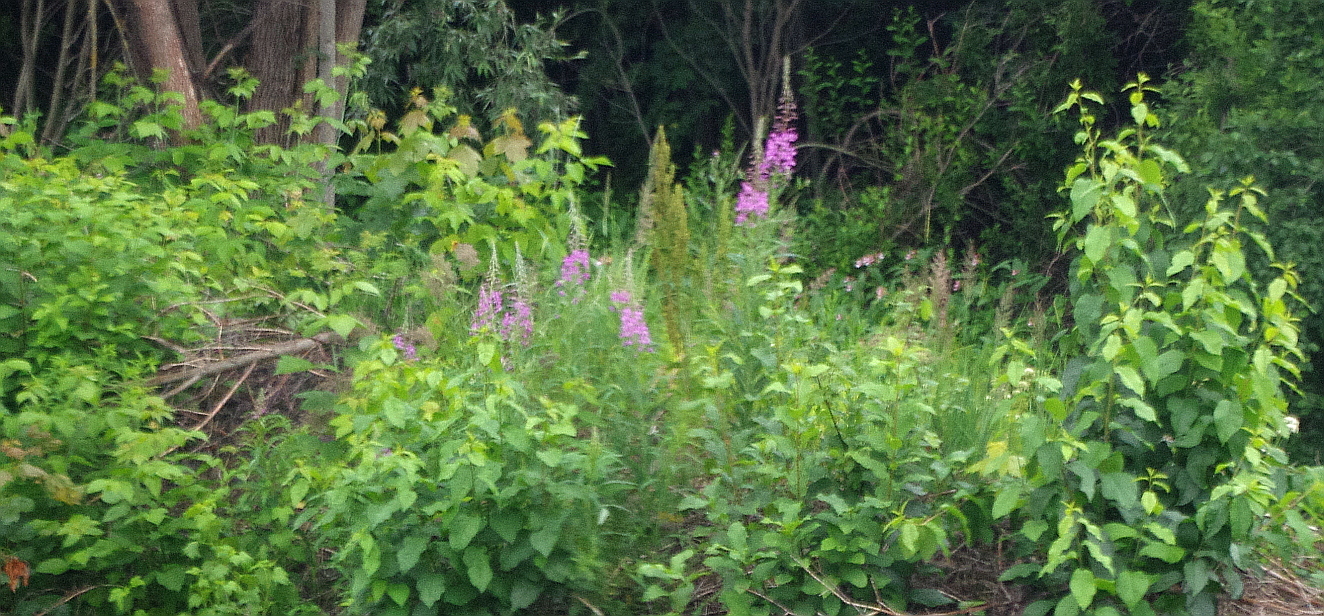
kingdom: Plantae
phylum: Tracheophyta
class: Magnoliopsida
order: Myrtales
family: Onagraceae
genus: Chamaenerion
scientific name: Chamaenerion angustifolium
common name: Fireweed
